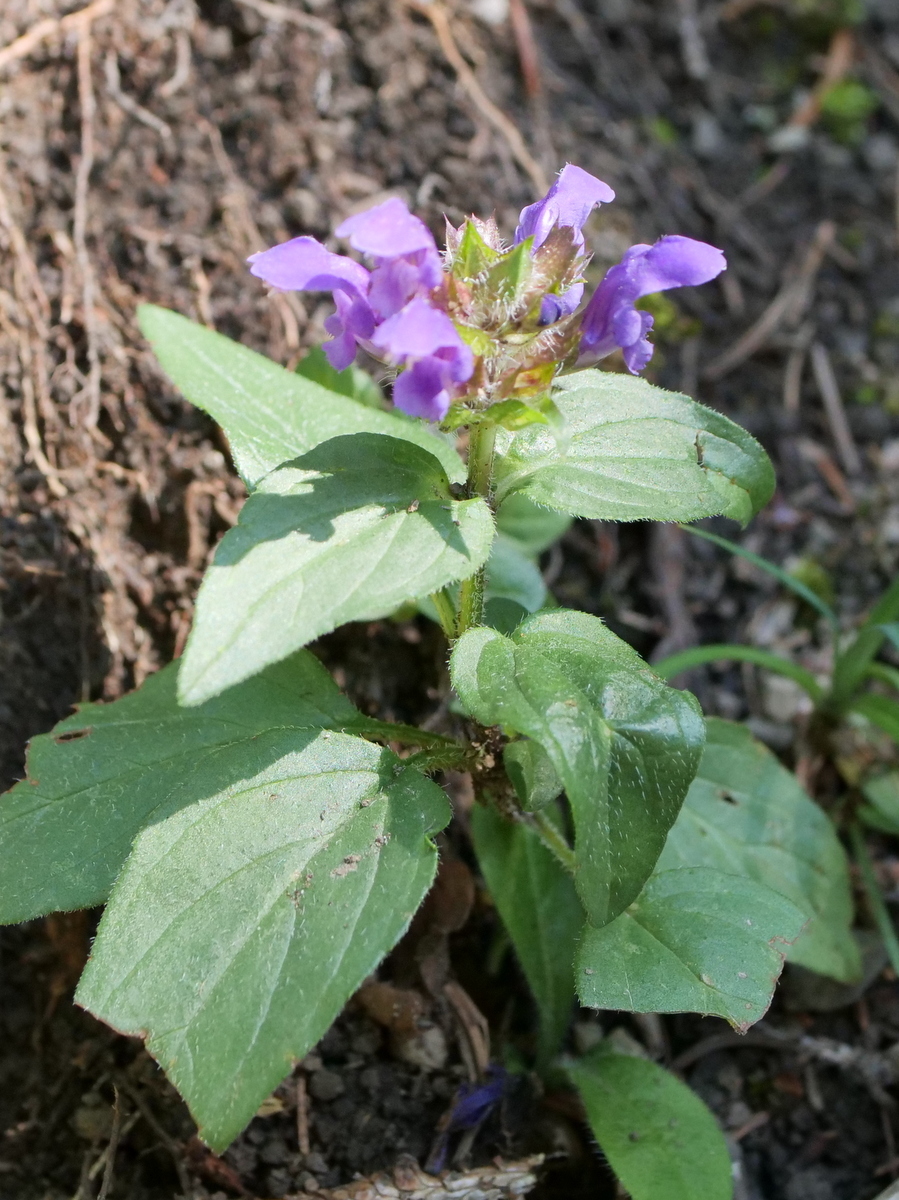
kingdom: Plantae
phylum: Tracheophyta
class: Magnoliopsida
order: Lamiales
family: Lamiaceae
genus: Prunella
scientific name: Prunella grandiflora
